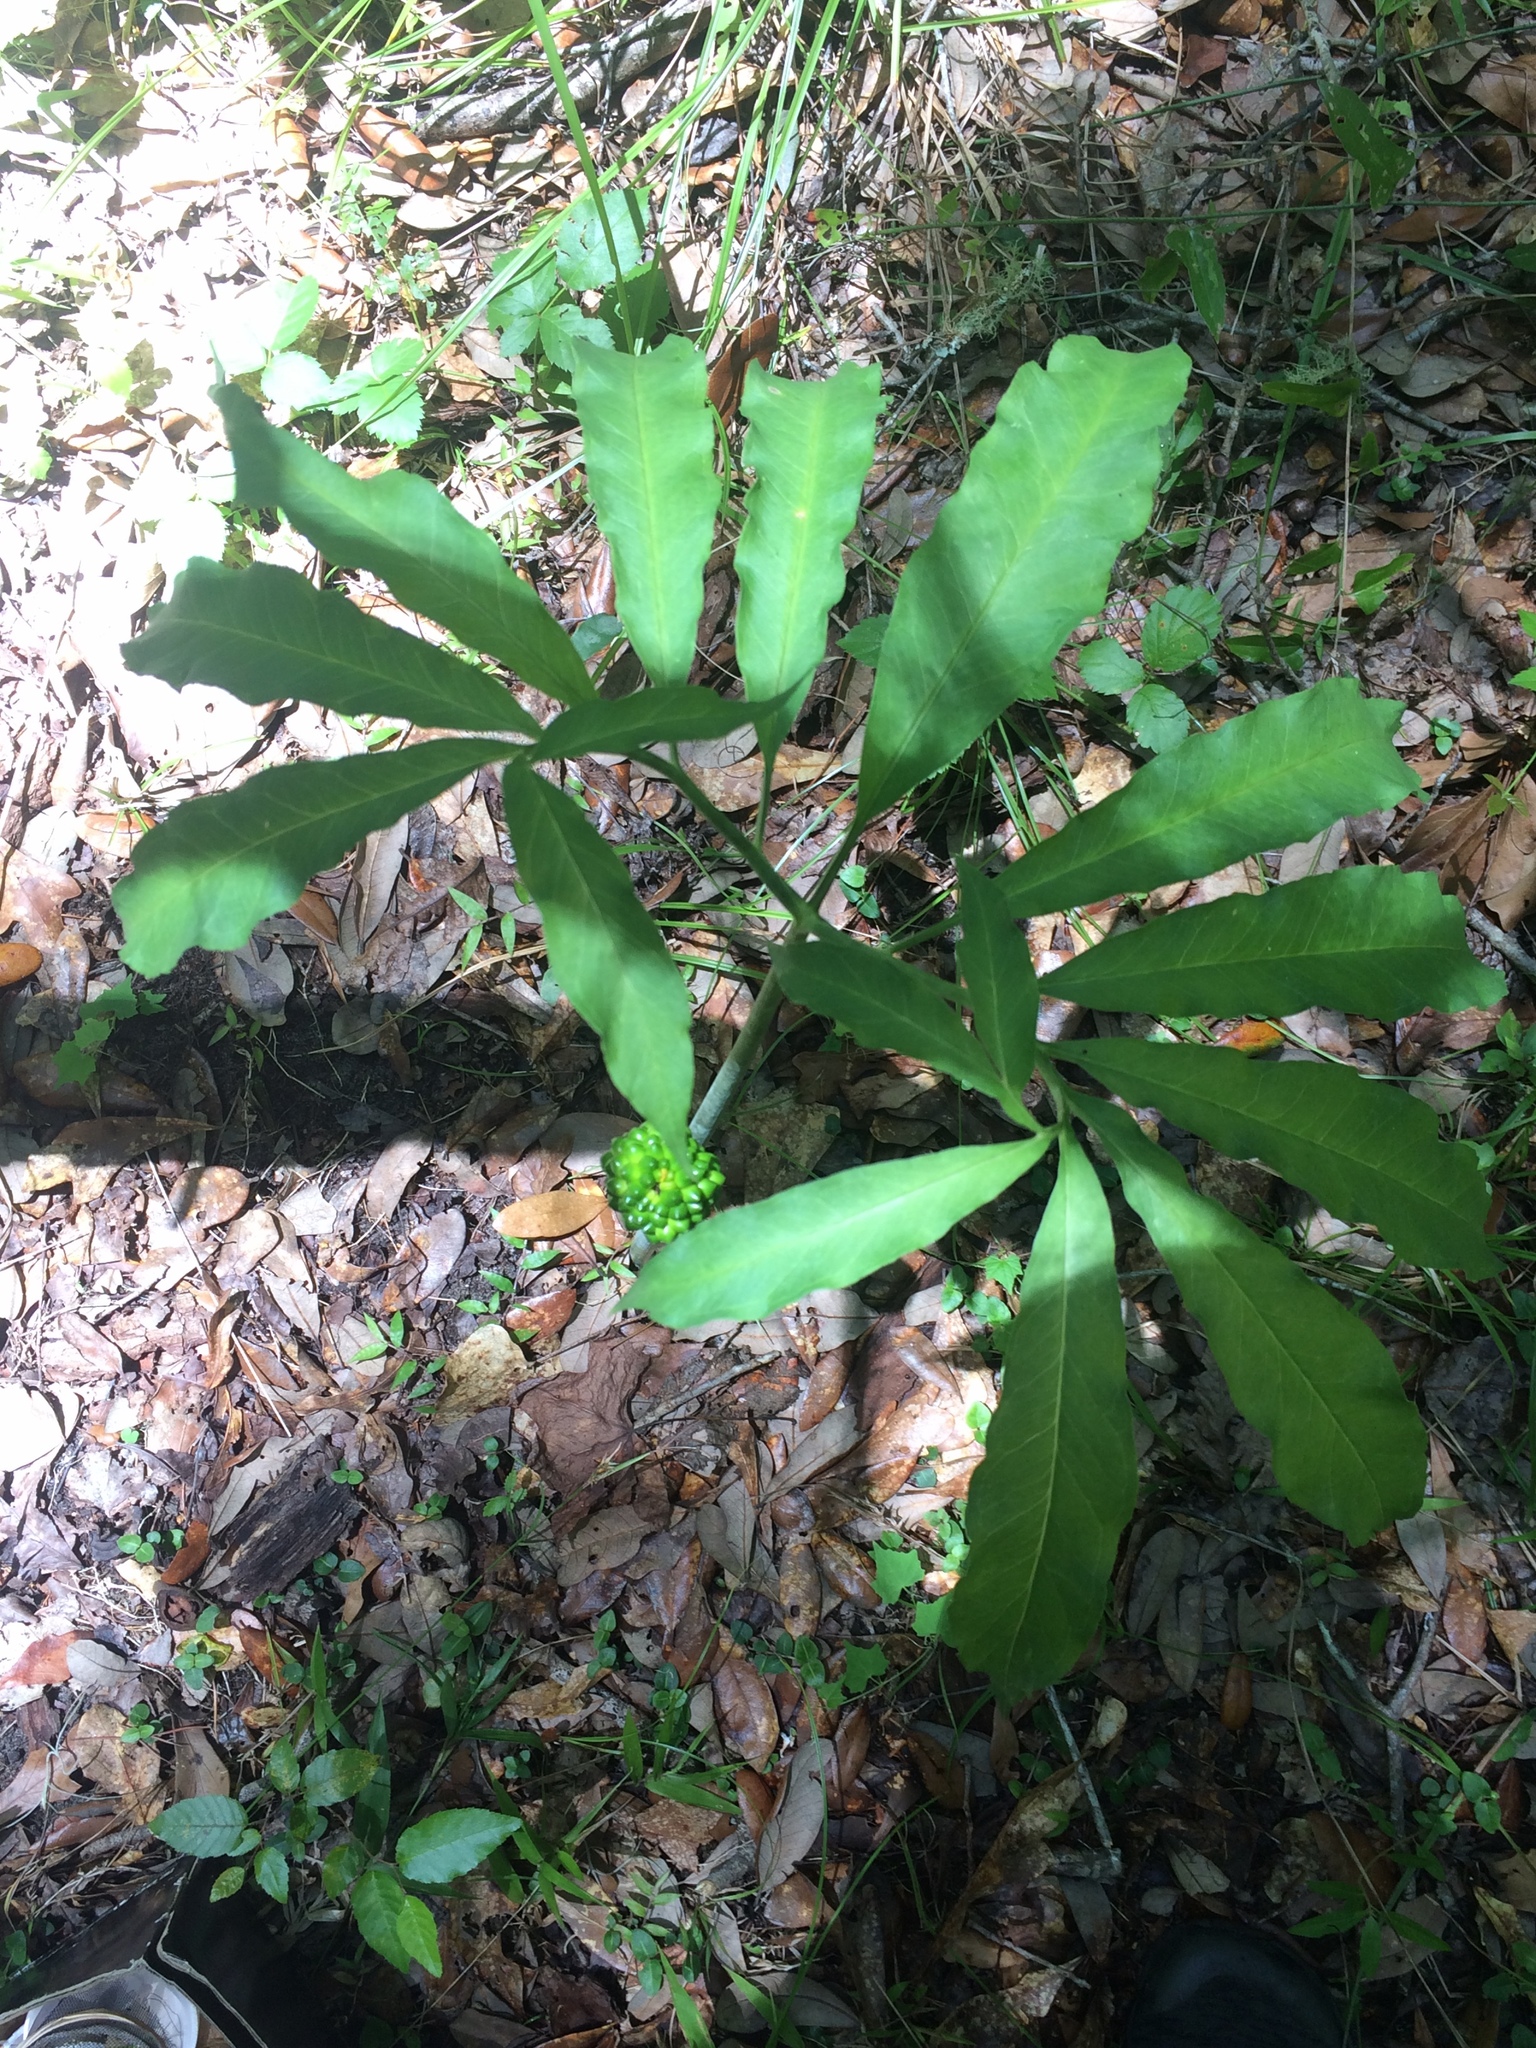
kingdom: Plantae
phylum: Tracheophyta
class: Liliopsida
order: Alismatales
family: Araceae
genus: Arisaema
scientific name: Arisaema dracontium
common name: Dragon-arum
